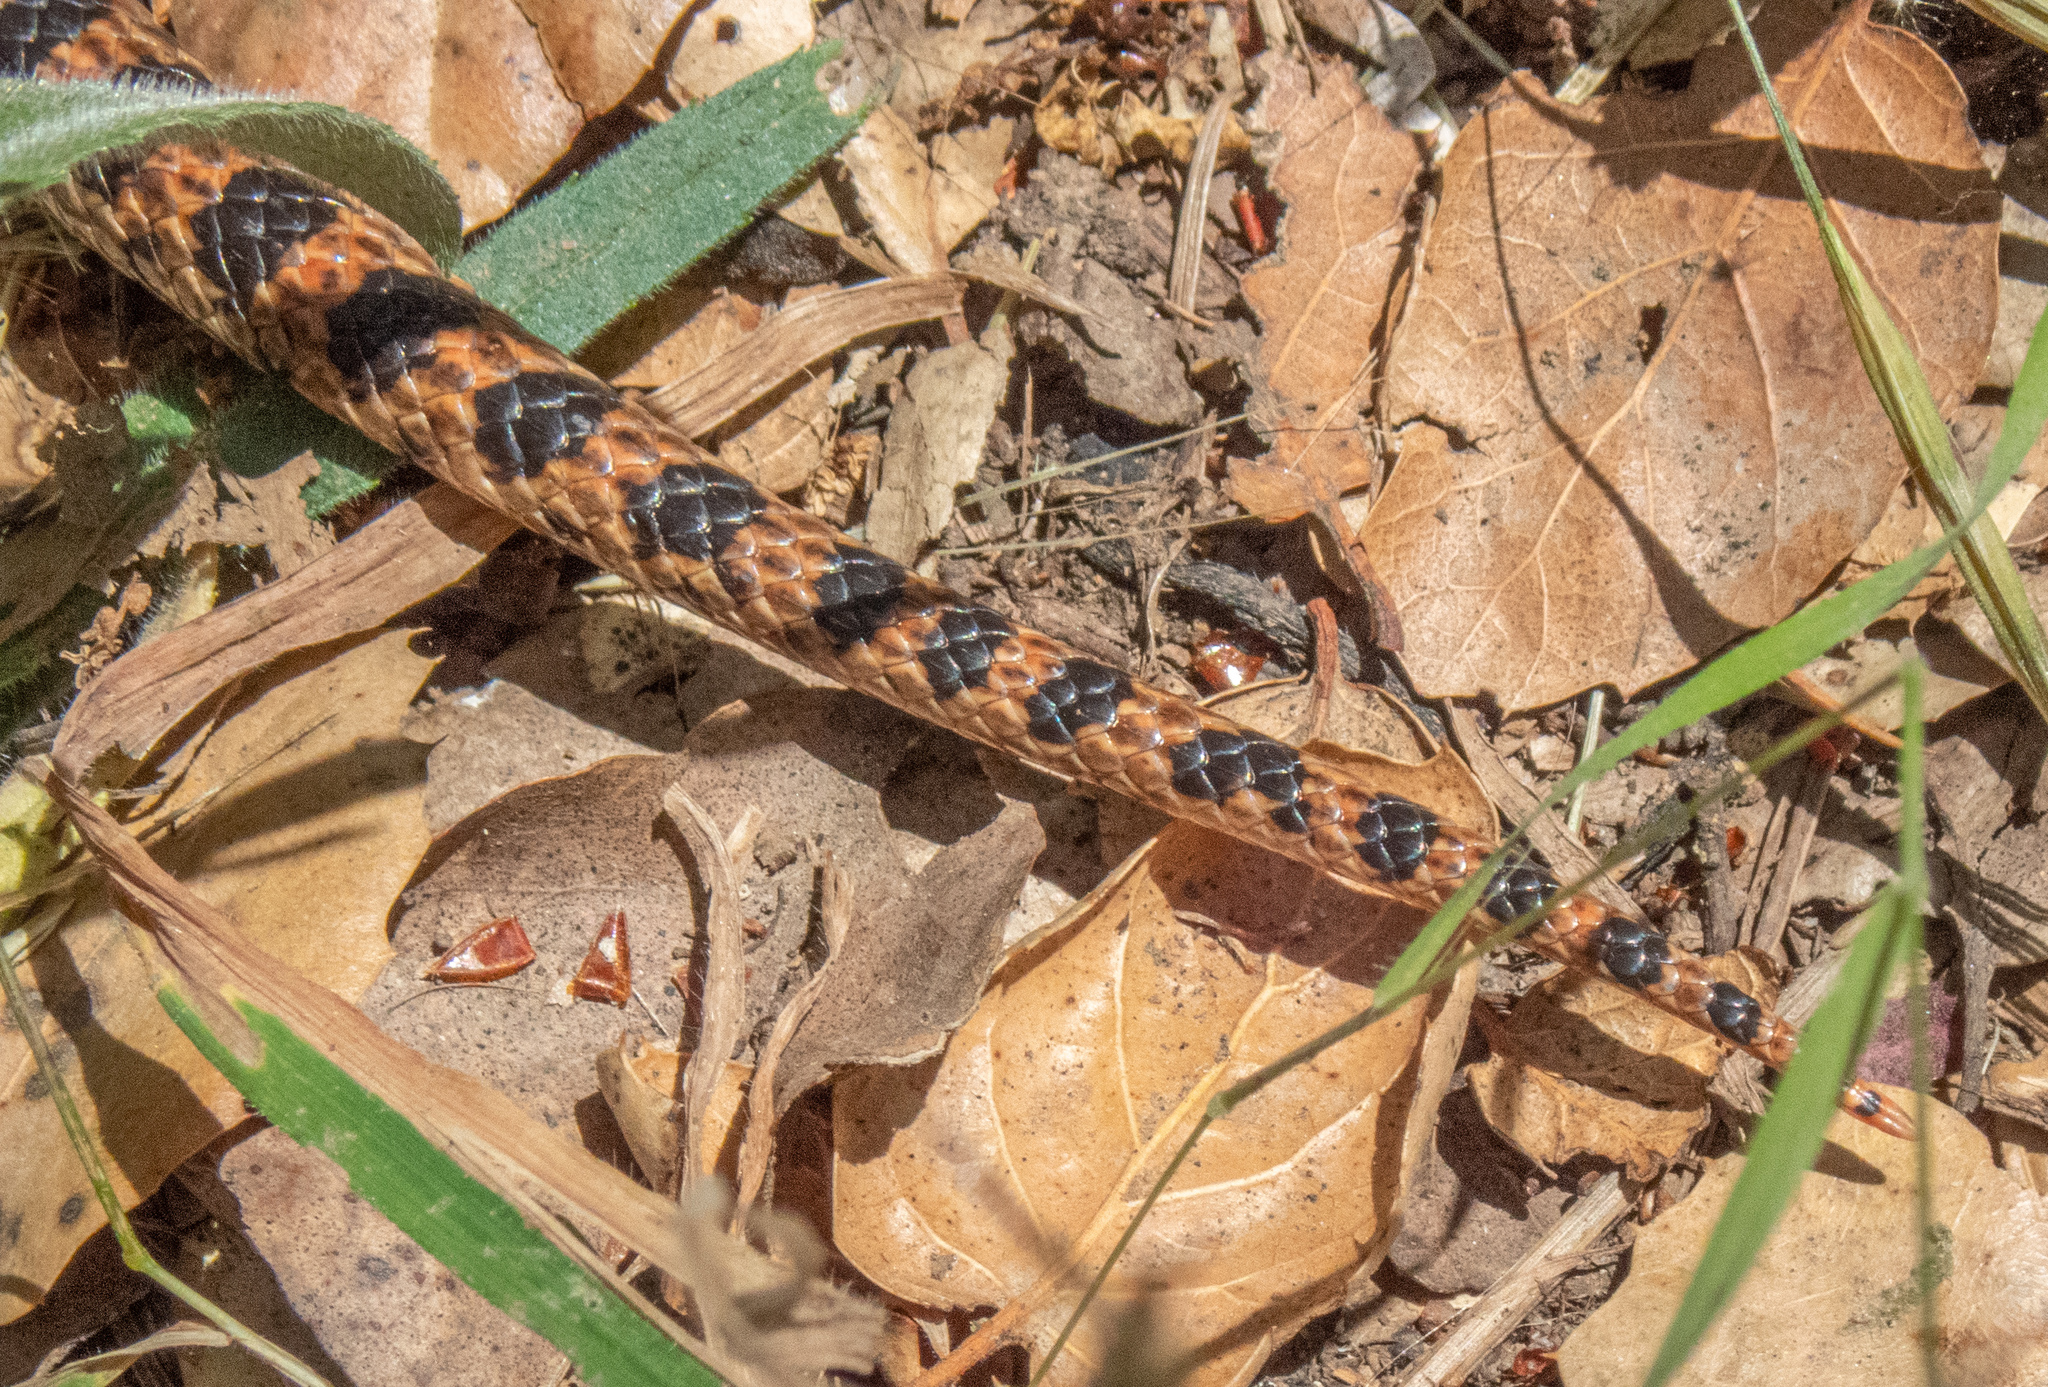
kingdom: Animalia
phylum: Chordata
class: Squamata
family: Colubridae
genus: Pituophis
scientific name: Pituophis catenifer
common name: Gopher snake
